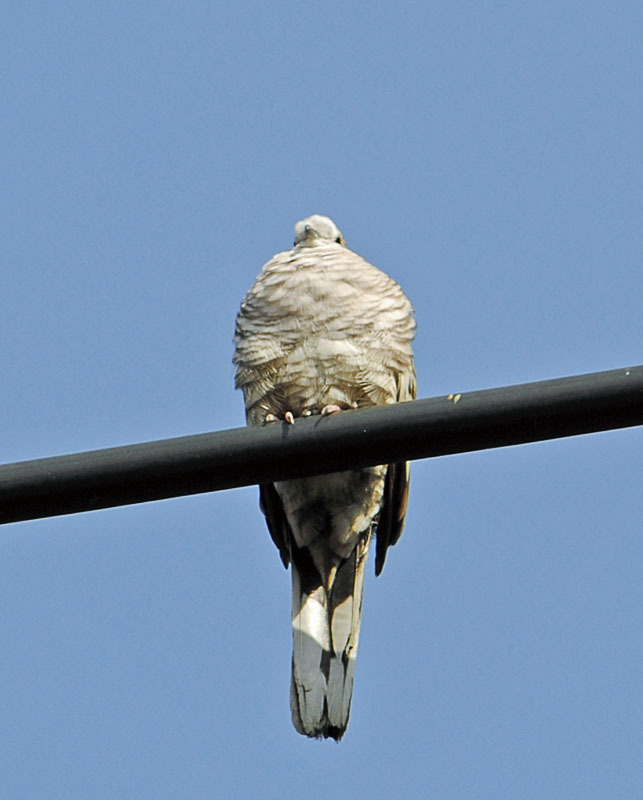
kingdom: Animalia
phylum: Chordata
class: Aves
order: Columbiformes
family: Columbidae
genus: Columbina
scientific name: Columbina inca
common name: Inca dove
